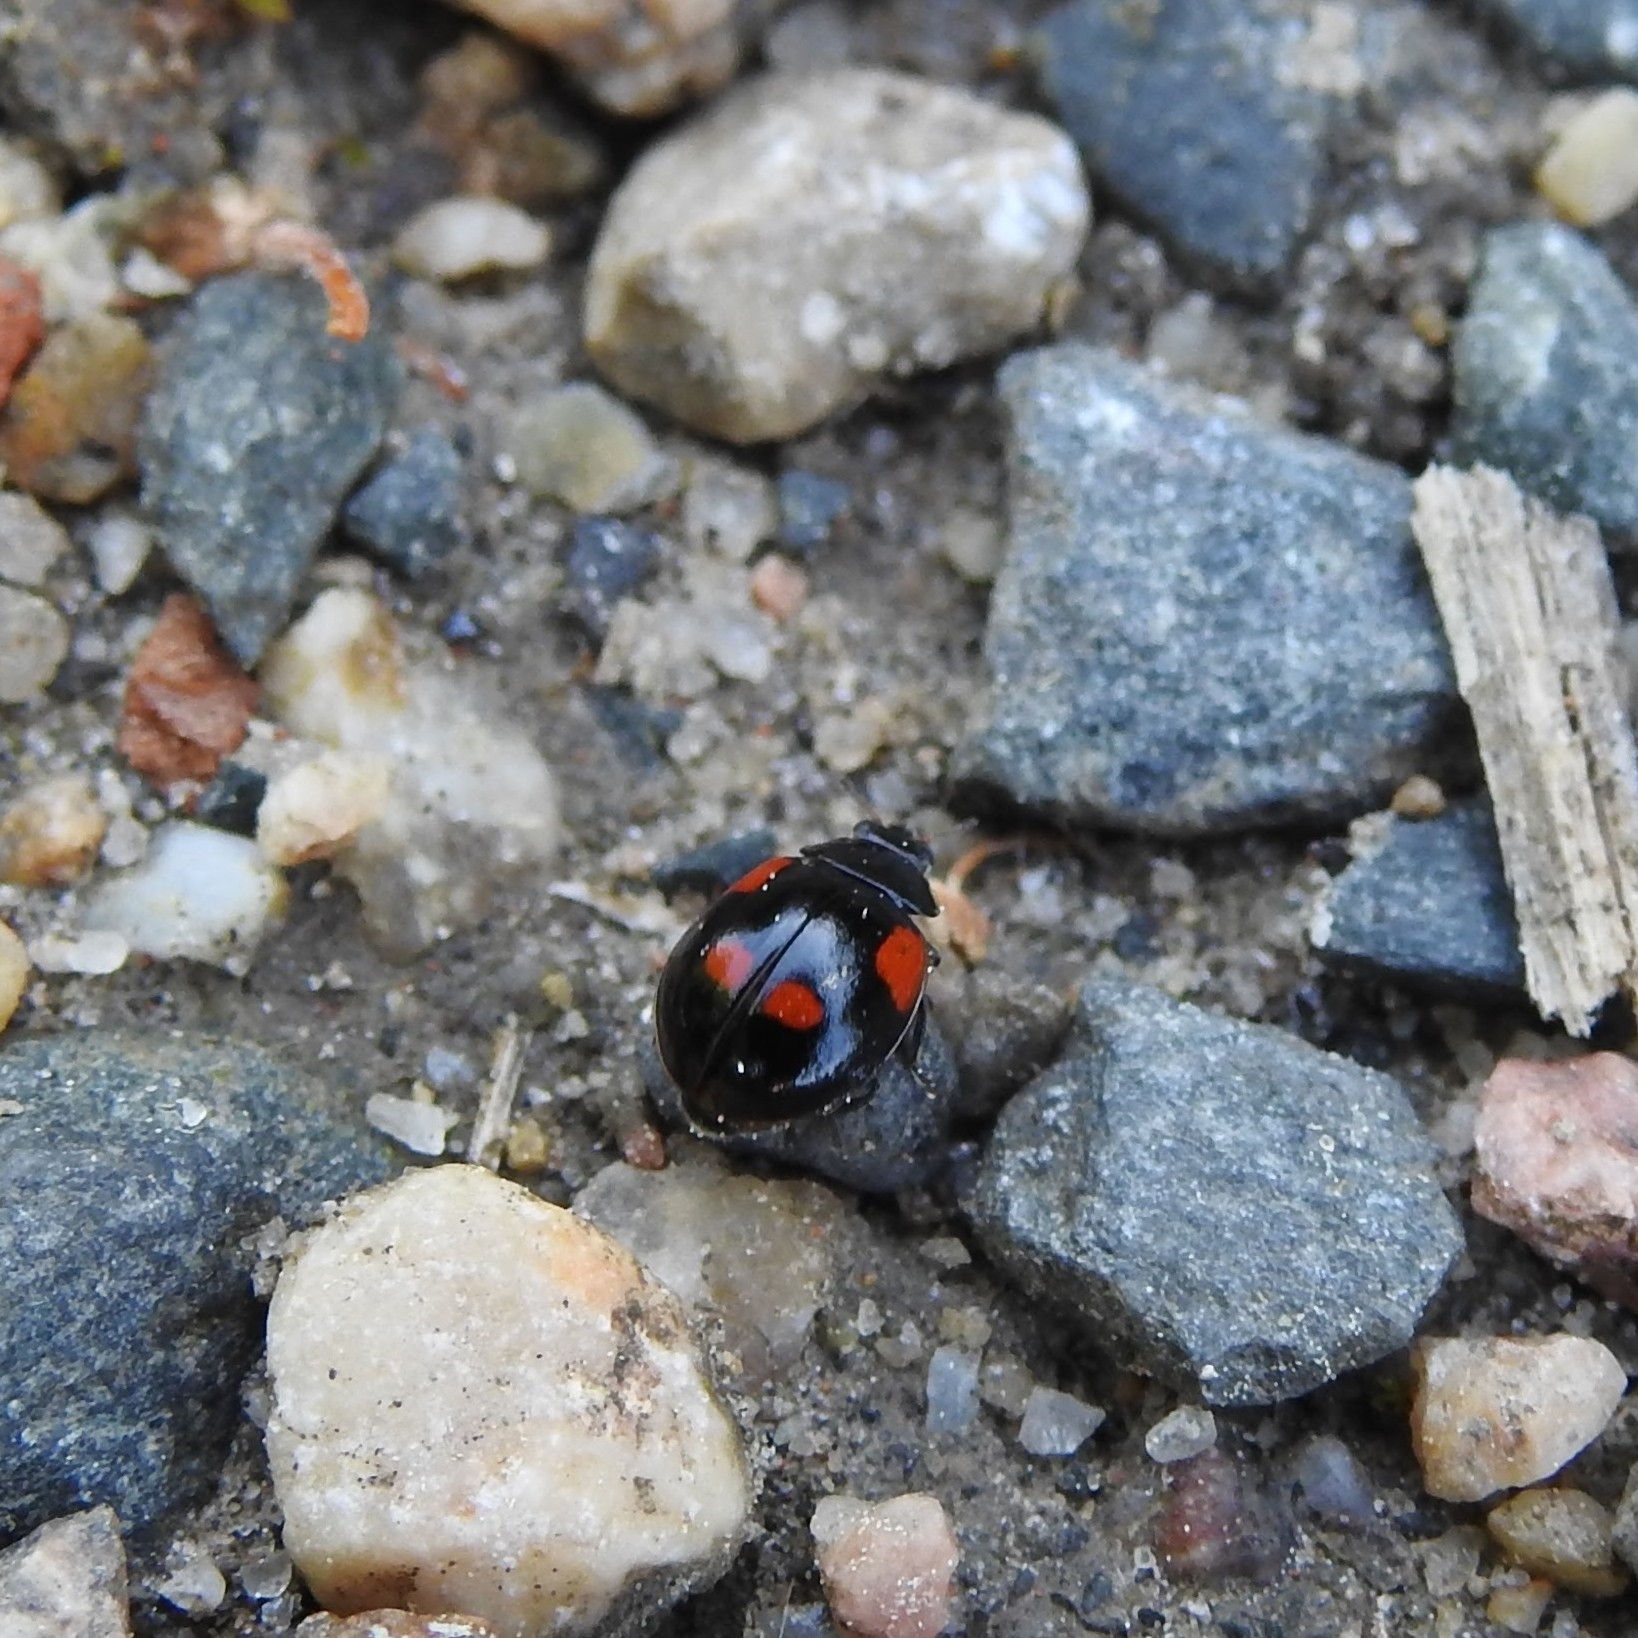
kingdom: Animalia
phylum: Arthropoda
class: Insecta
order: Coleoptera
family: Coccinellidae
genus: Adalia
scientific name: Adalia bipunctata
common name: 2-spot ladybird
